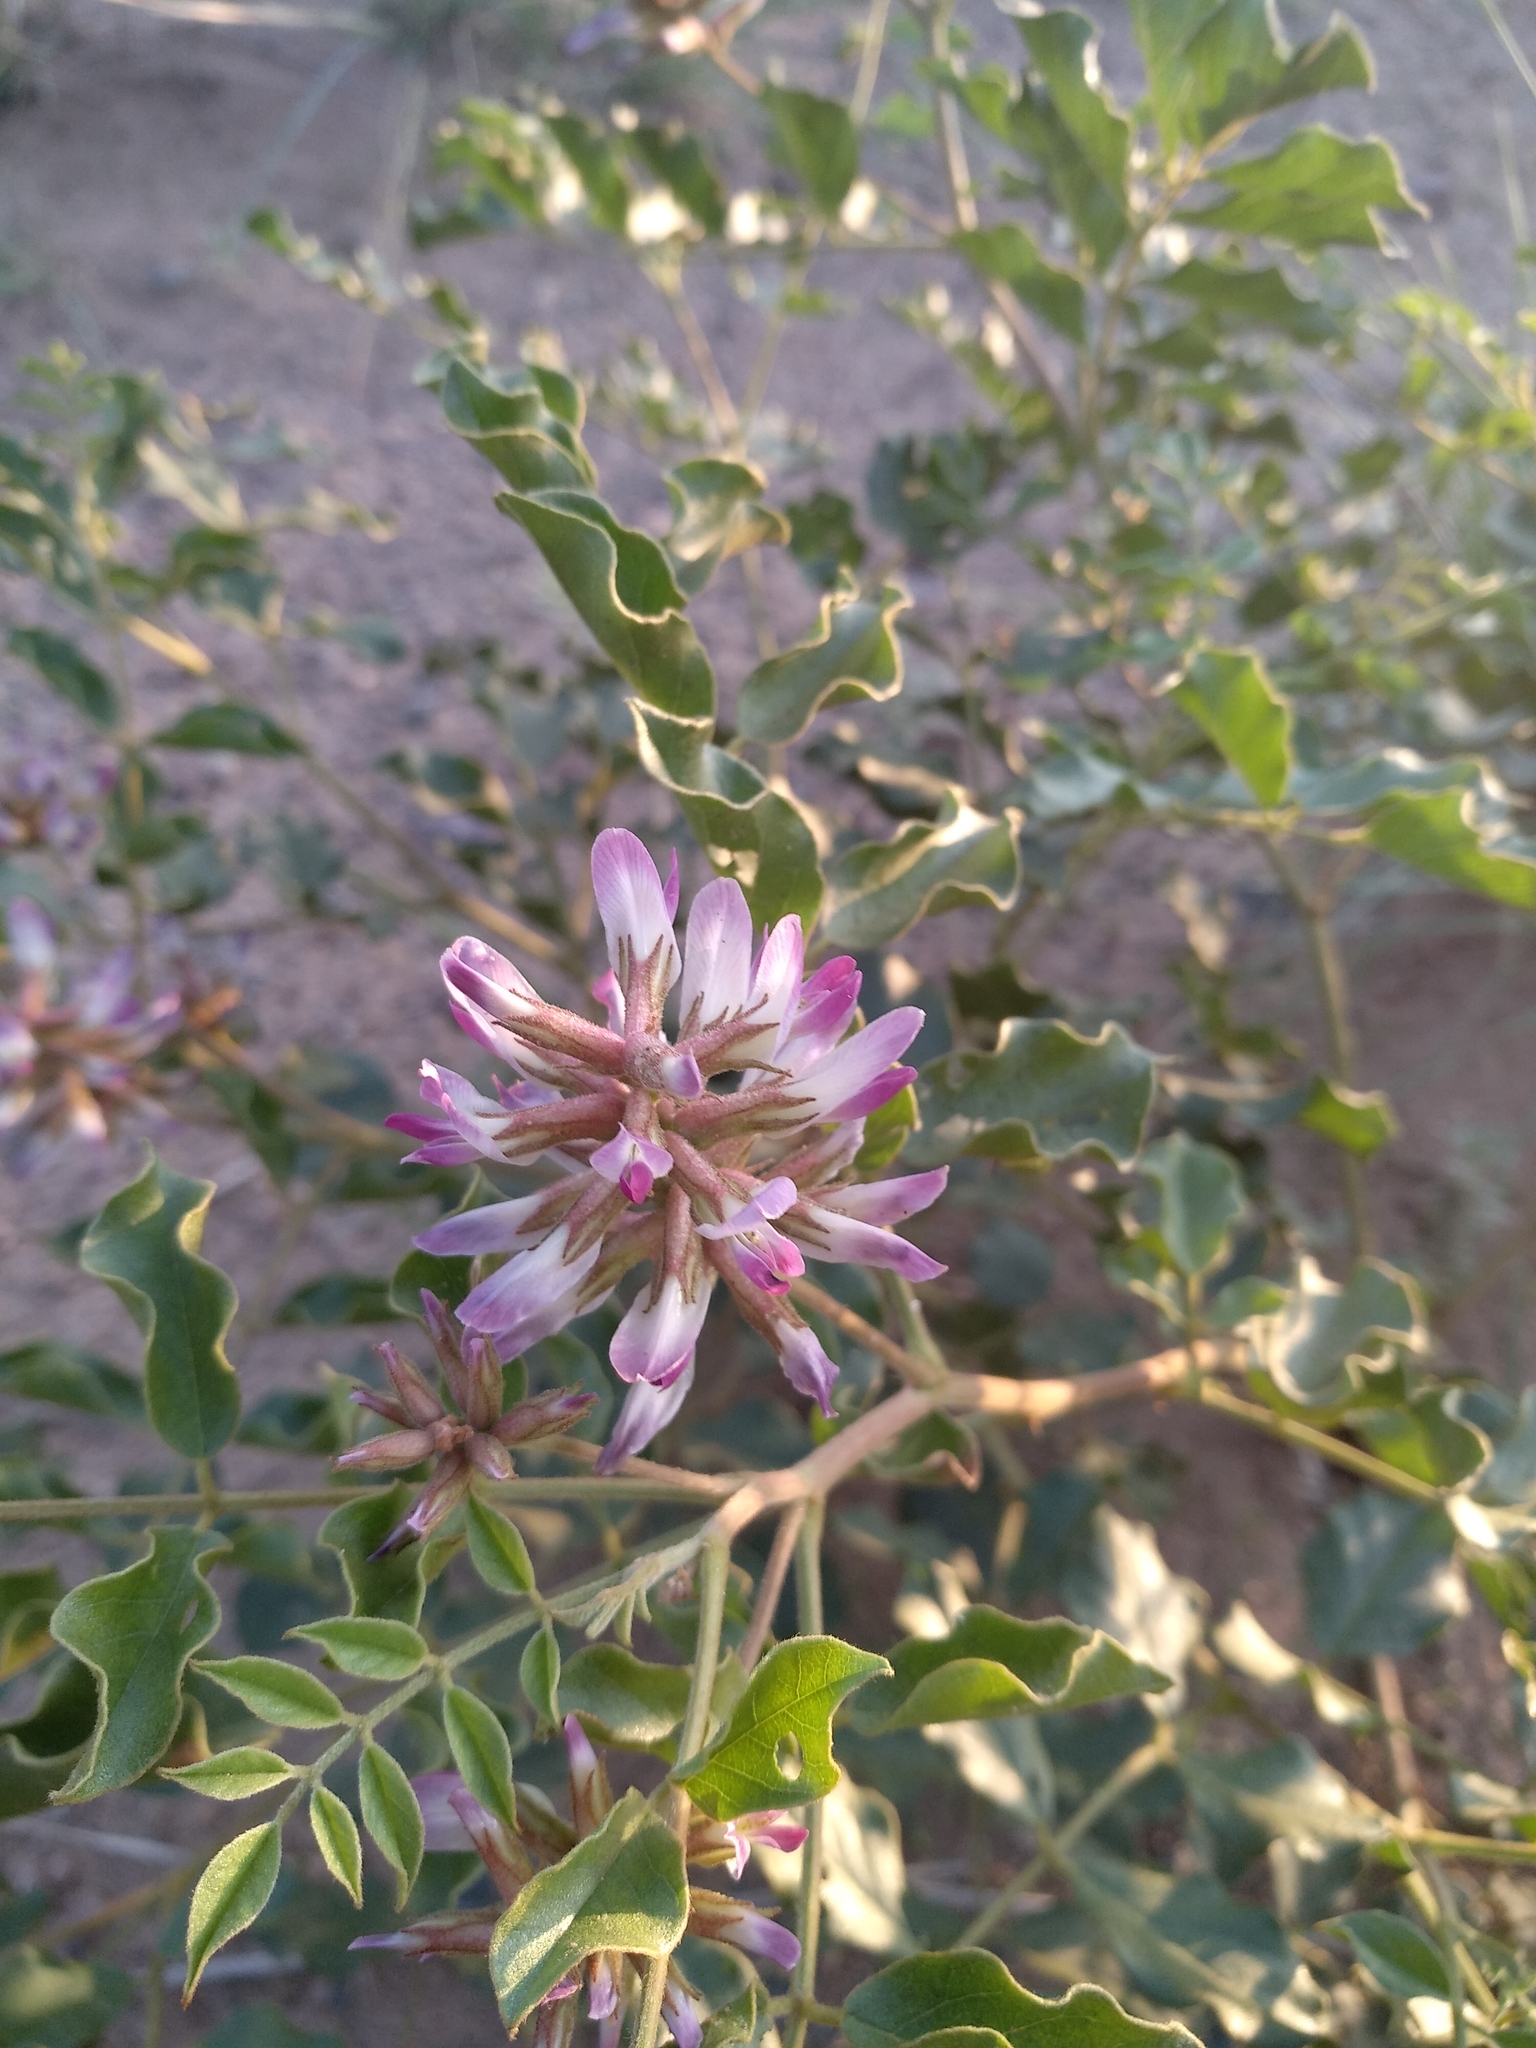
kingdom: Plantae
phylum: Tracheophyta
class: Magnoliopsida
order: Fabales
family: Fabaceae
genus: Glycyrrhiza
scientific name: Glycyrrhiza uralensis
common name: Chinese licorice
